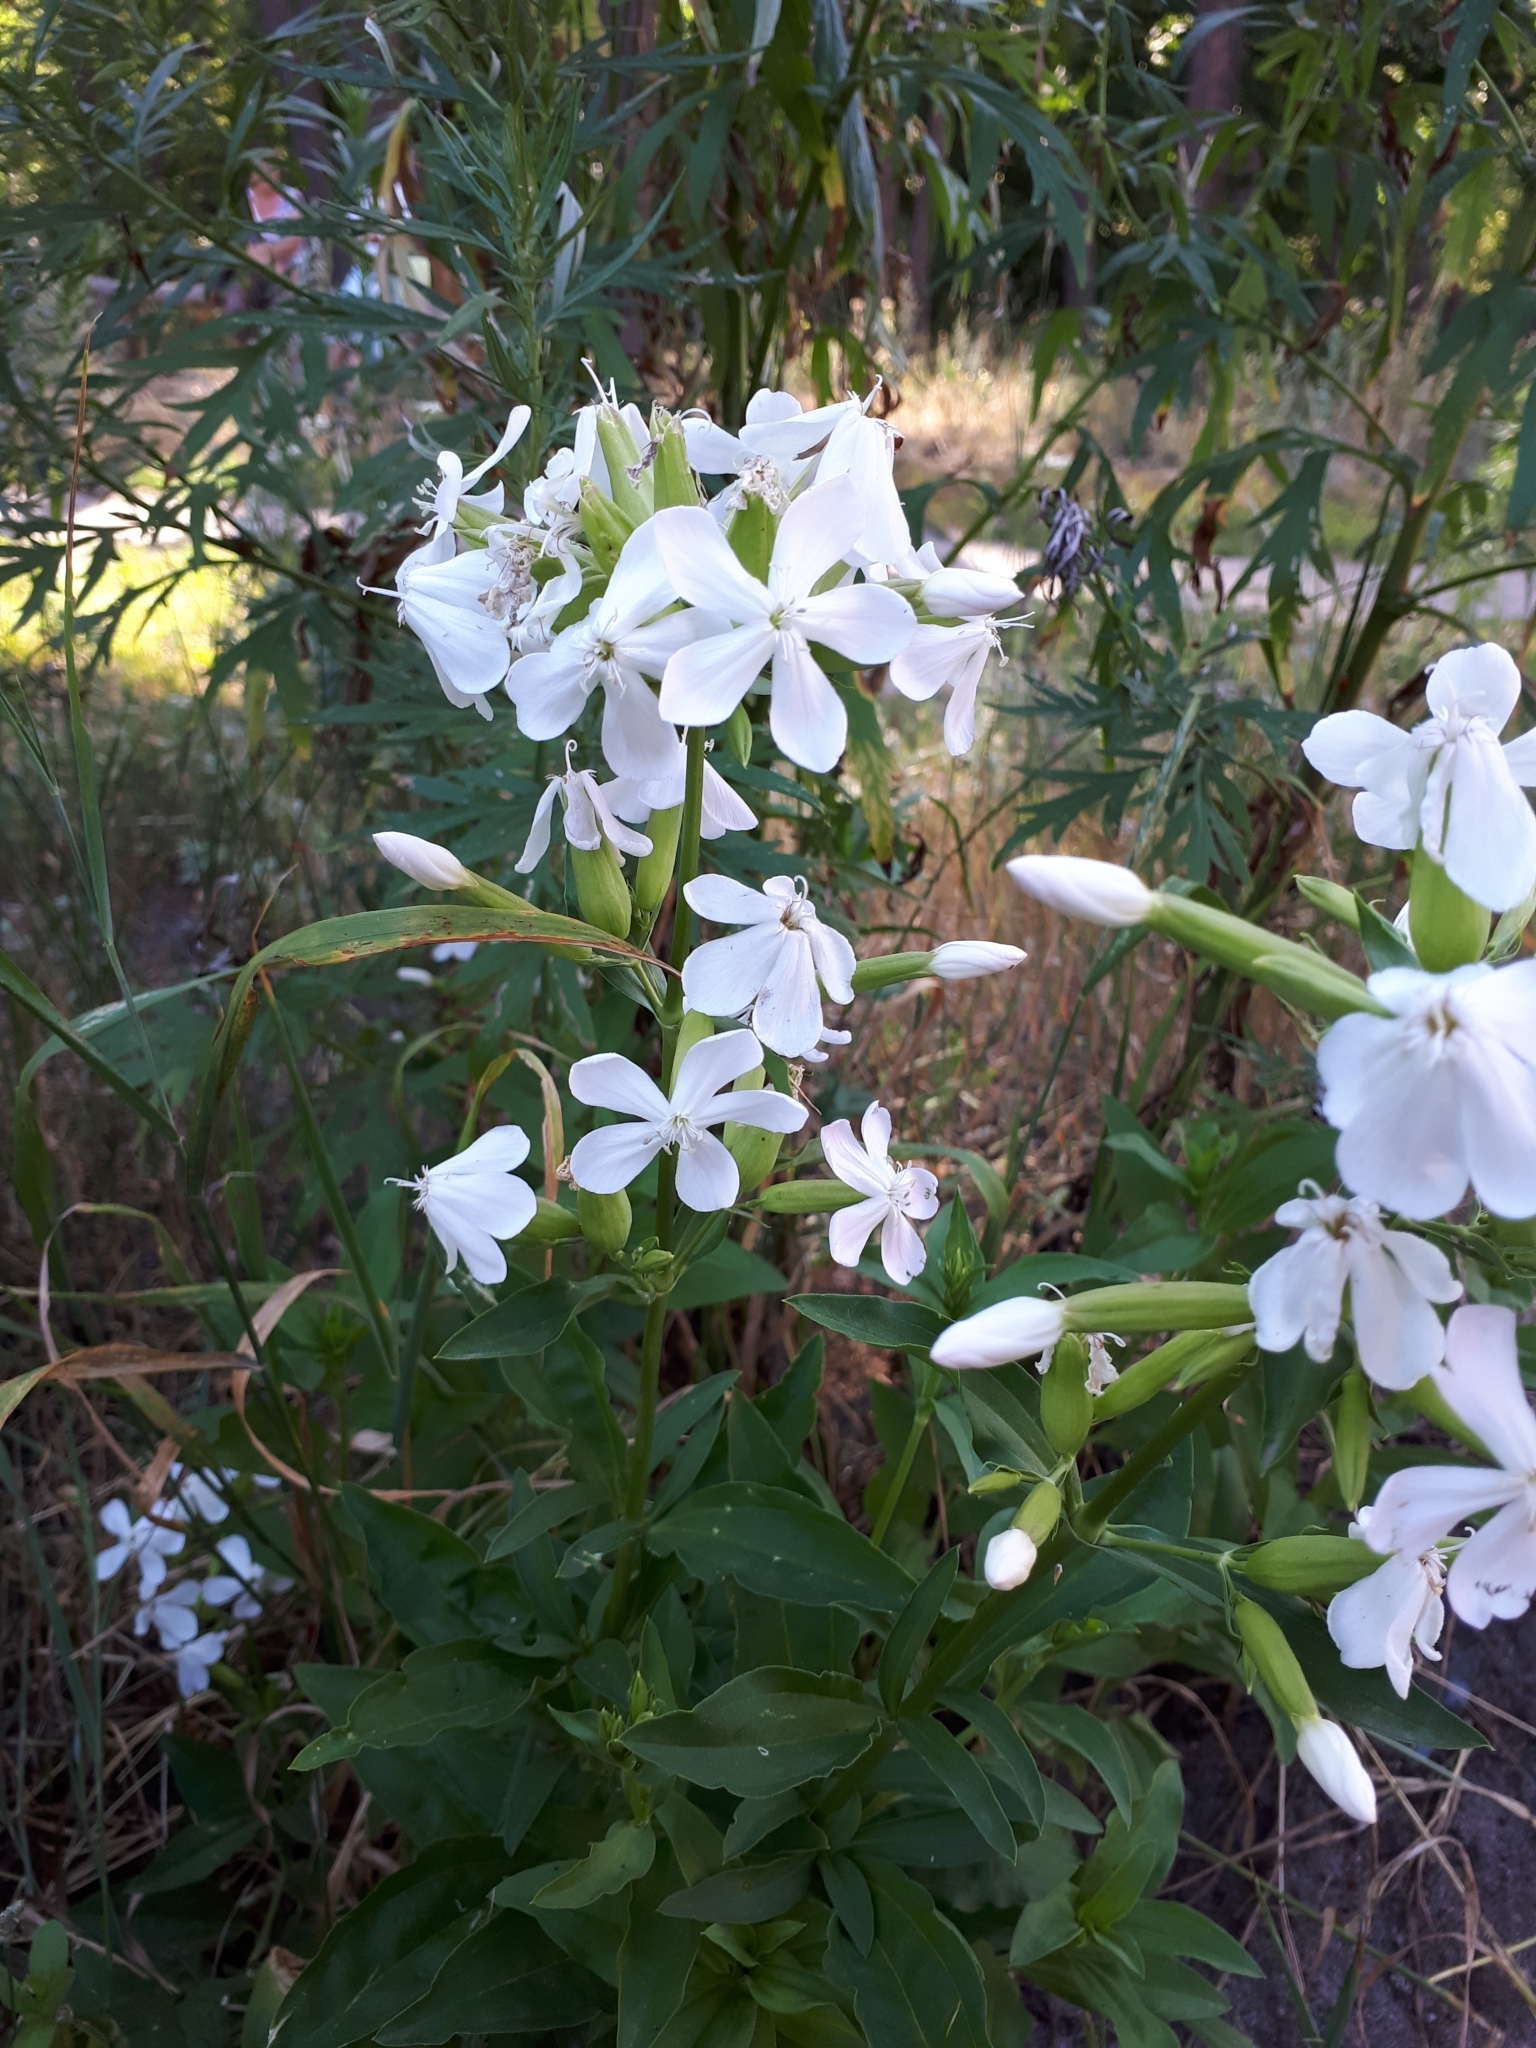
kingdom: Plantae
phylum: Tracheophyta
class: Magnoliopsida
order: Caryophyllales
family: Caryophyllaceae
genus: Saponaria
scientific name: Saponaria officinalis
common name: Soapwort
